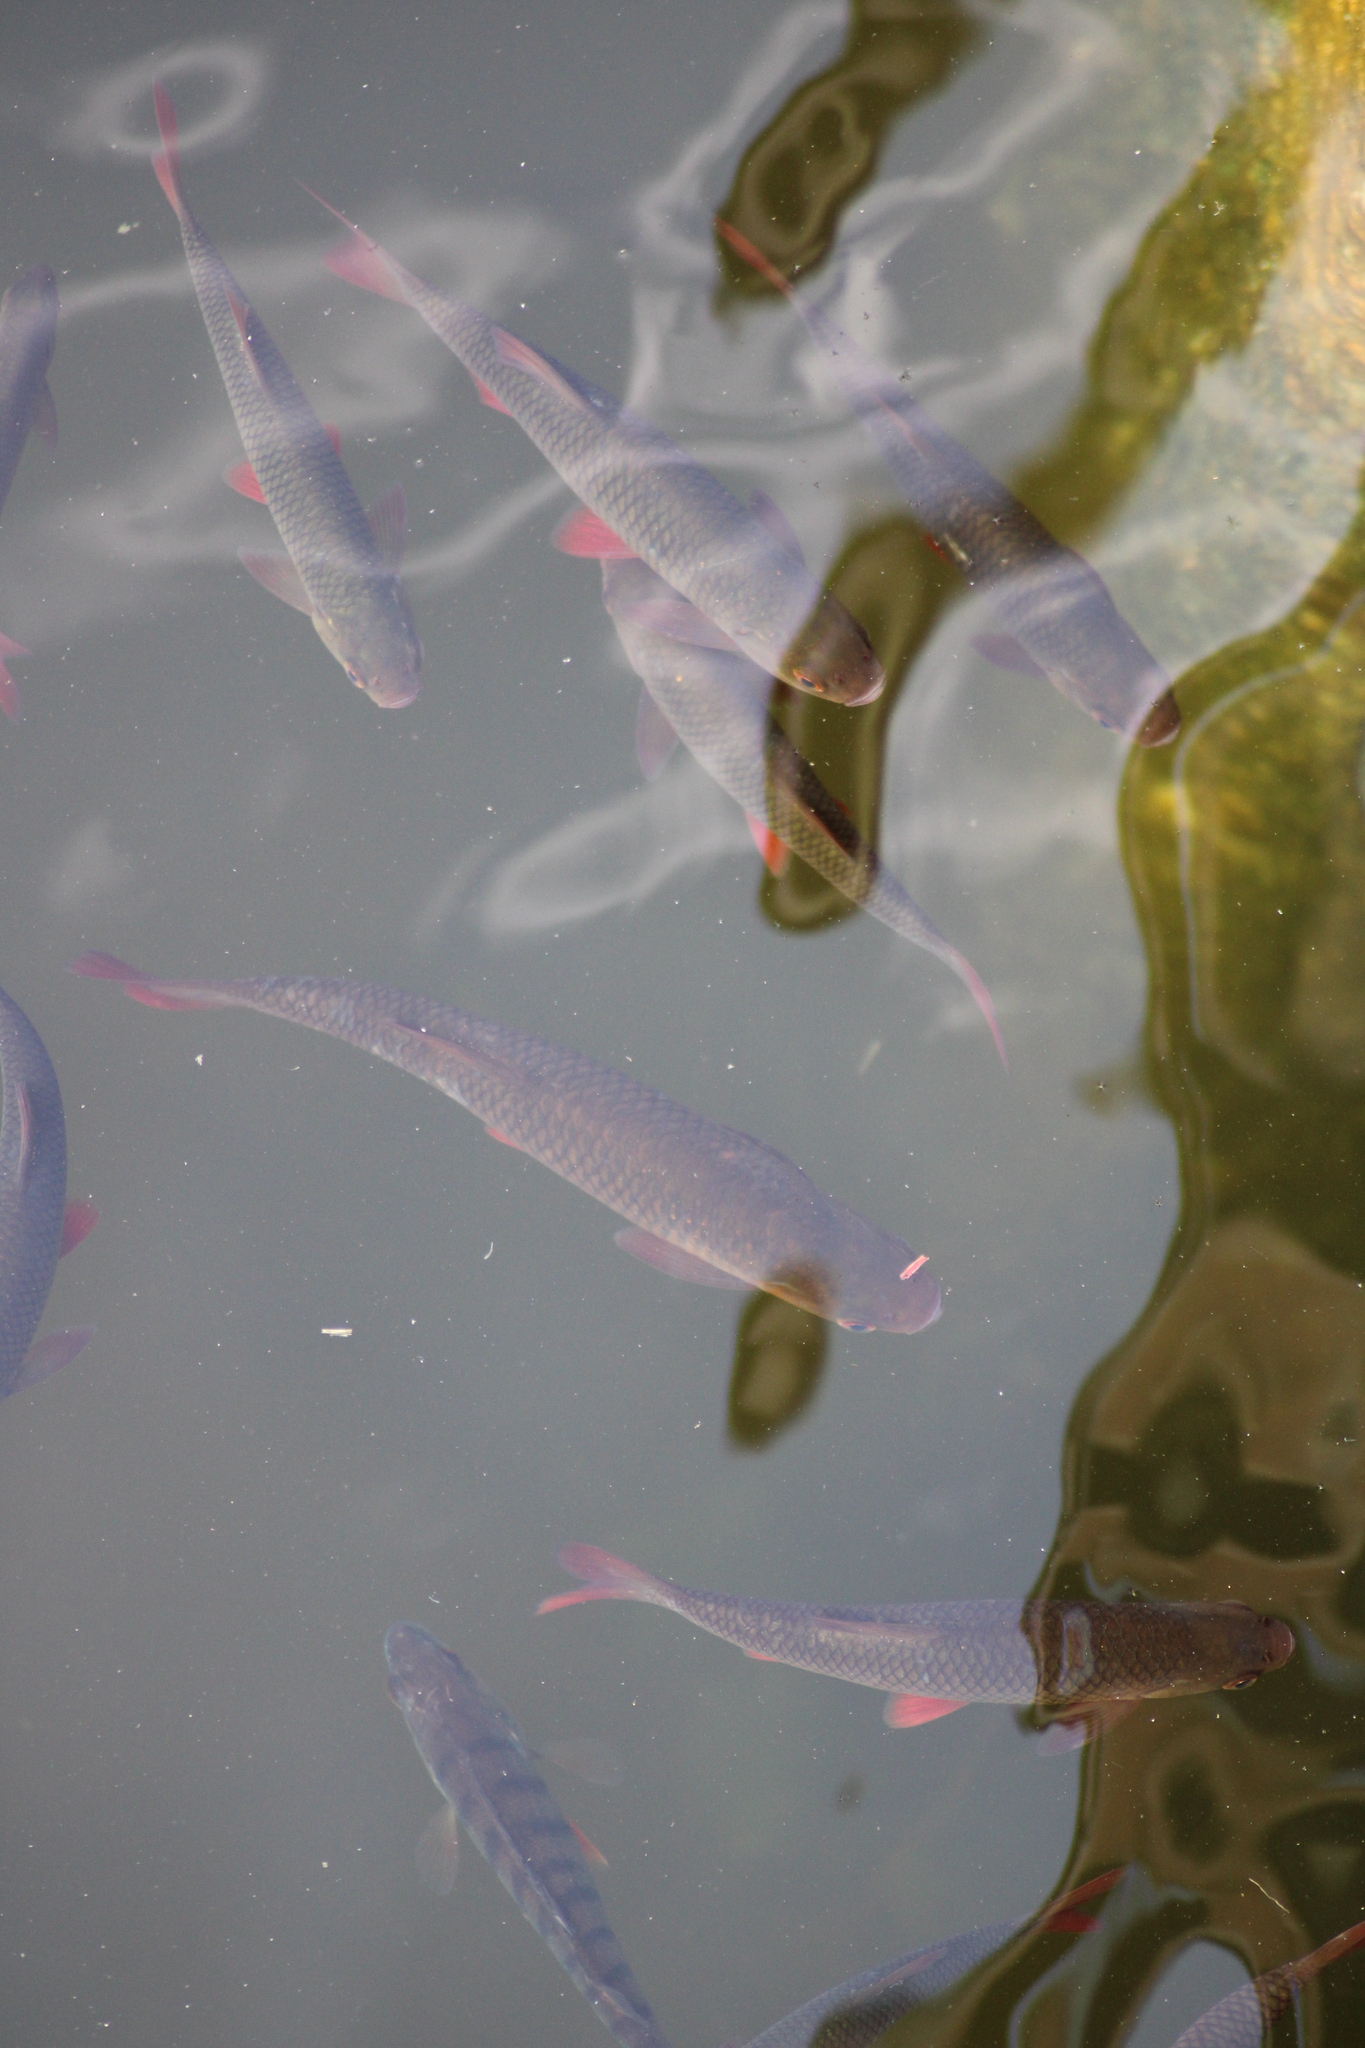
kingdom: Animalia
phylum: Chordata
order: Cypriniformes
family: Cyprinidae
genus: Scardinius
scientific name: Scardinius erythrophthalmus
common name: Rudd
